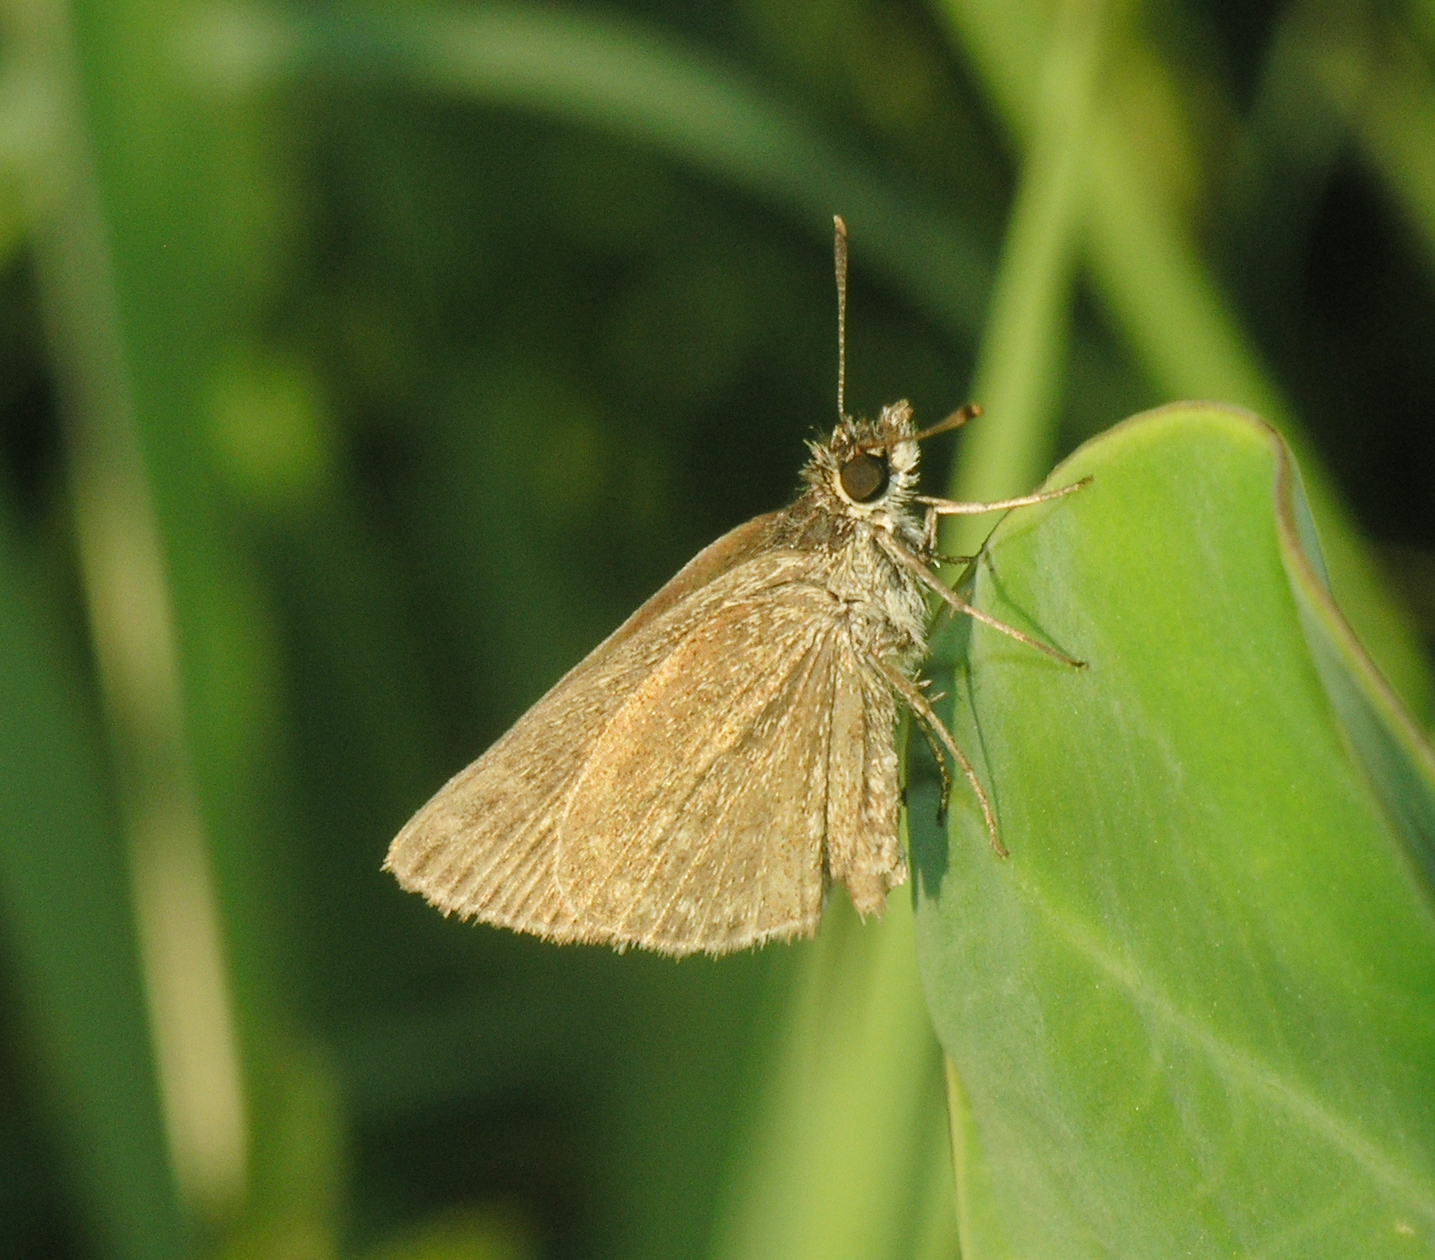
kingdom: Animalia
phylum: Arthropoda
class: Insecta
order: Lepidoptera
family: Hesperiidae
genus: Aeromachus
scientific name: Aeromachus pygmaeus
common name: Pygmy scrub hopper
